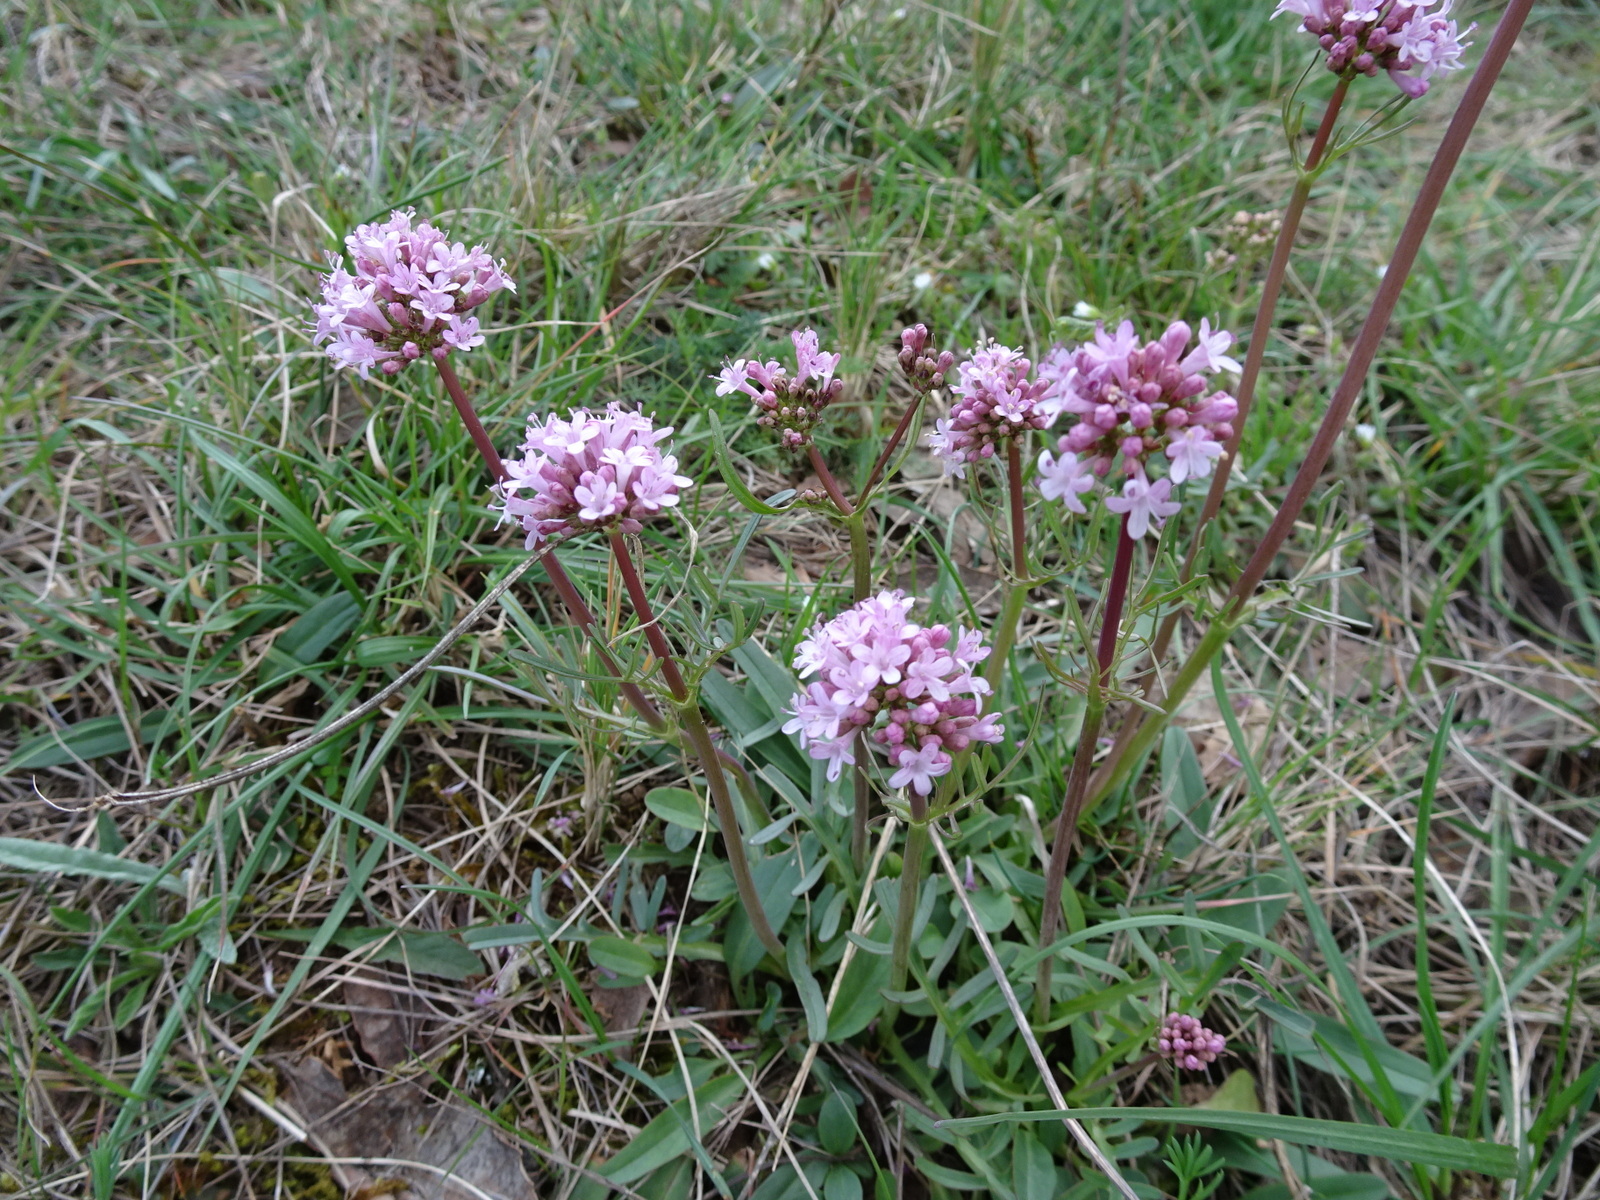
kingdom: Plantae
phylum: Tracheophyta
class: Magnoliopsida
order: Dipsacales
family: Caprifoliaceae
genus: Valeriana
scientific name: Valeriana tuberosa
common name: Tuberous valerian
